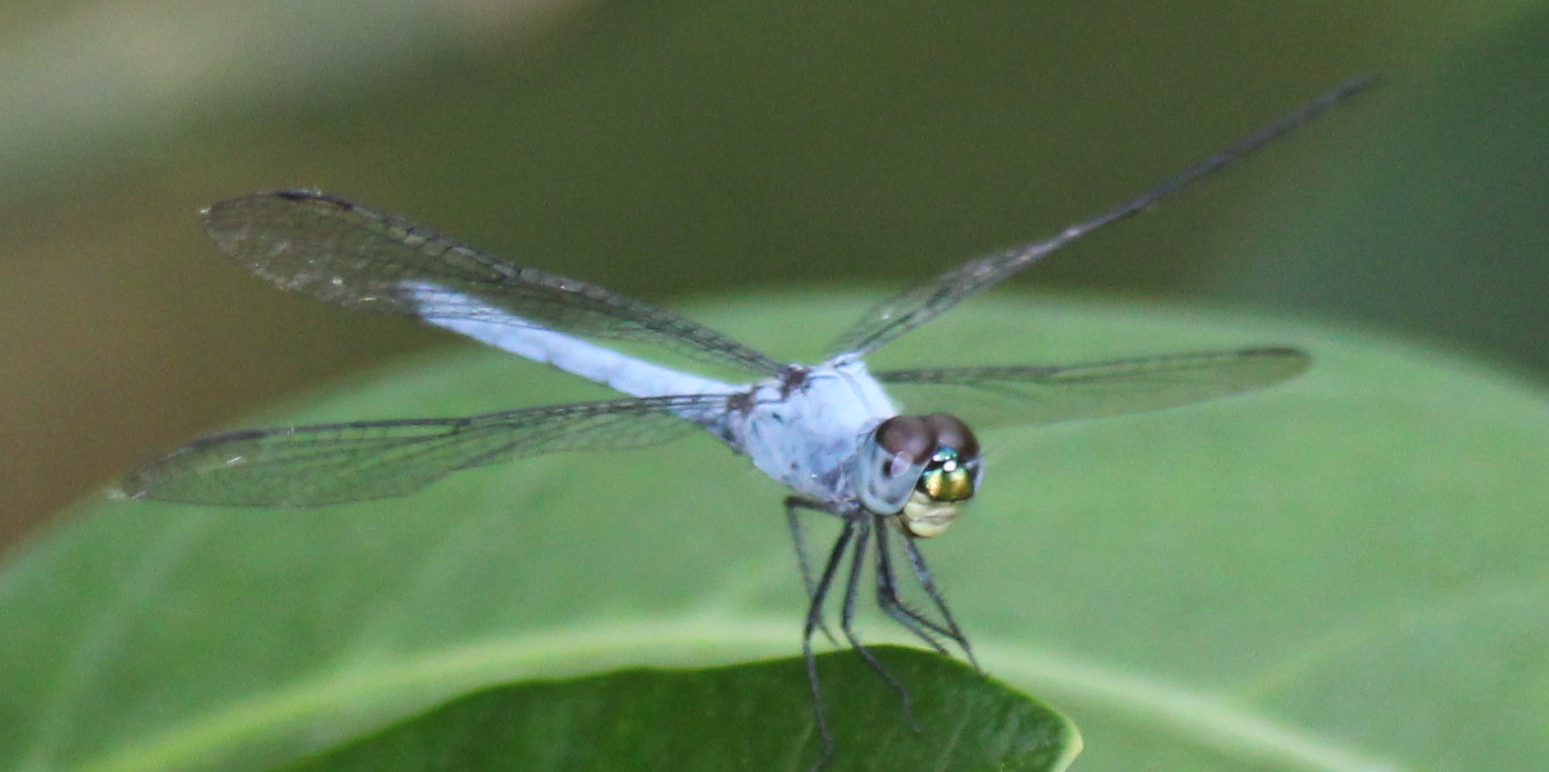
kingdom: Animalia
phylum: Arthropoda
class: Insecta
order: Odonata
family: Libellulidae
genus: Chalcostephia
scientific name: Chalcostephia flavifrons
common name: Inspector
